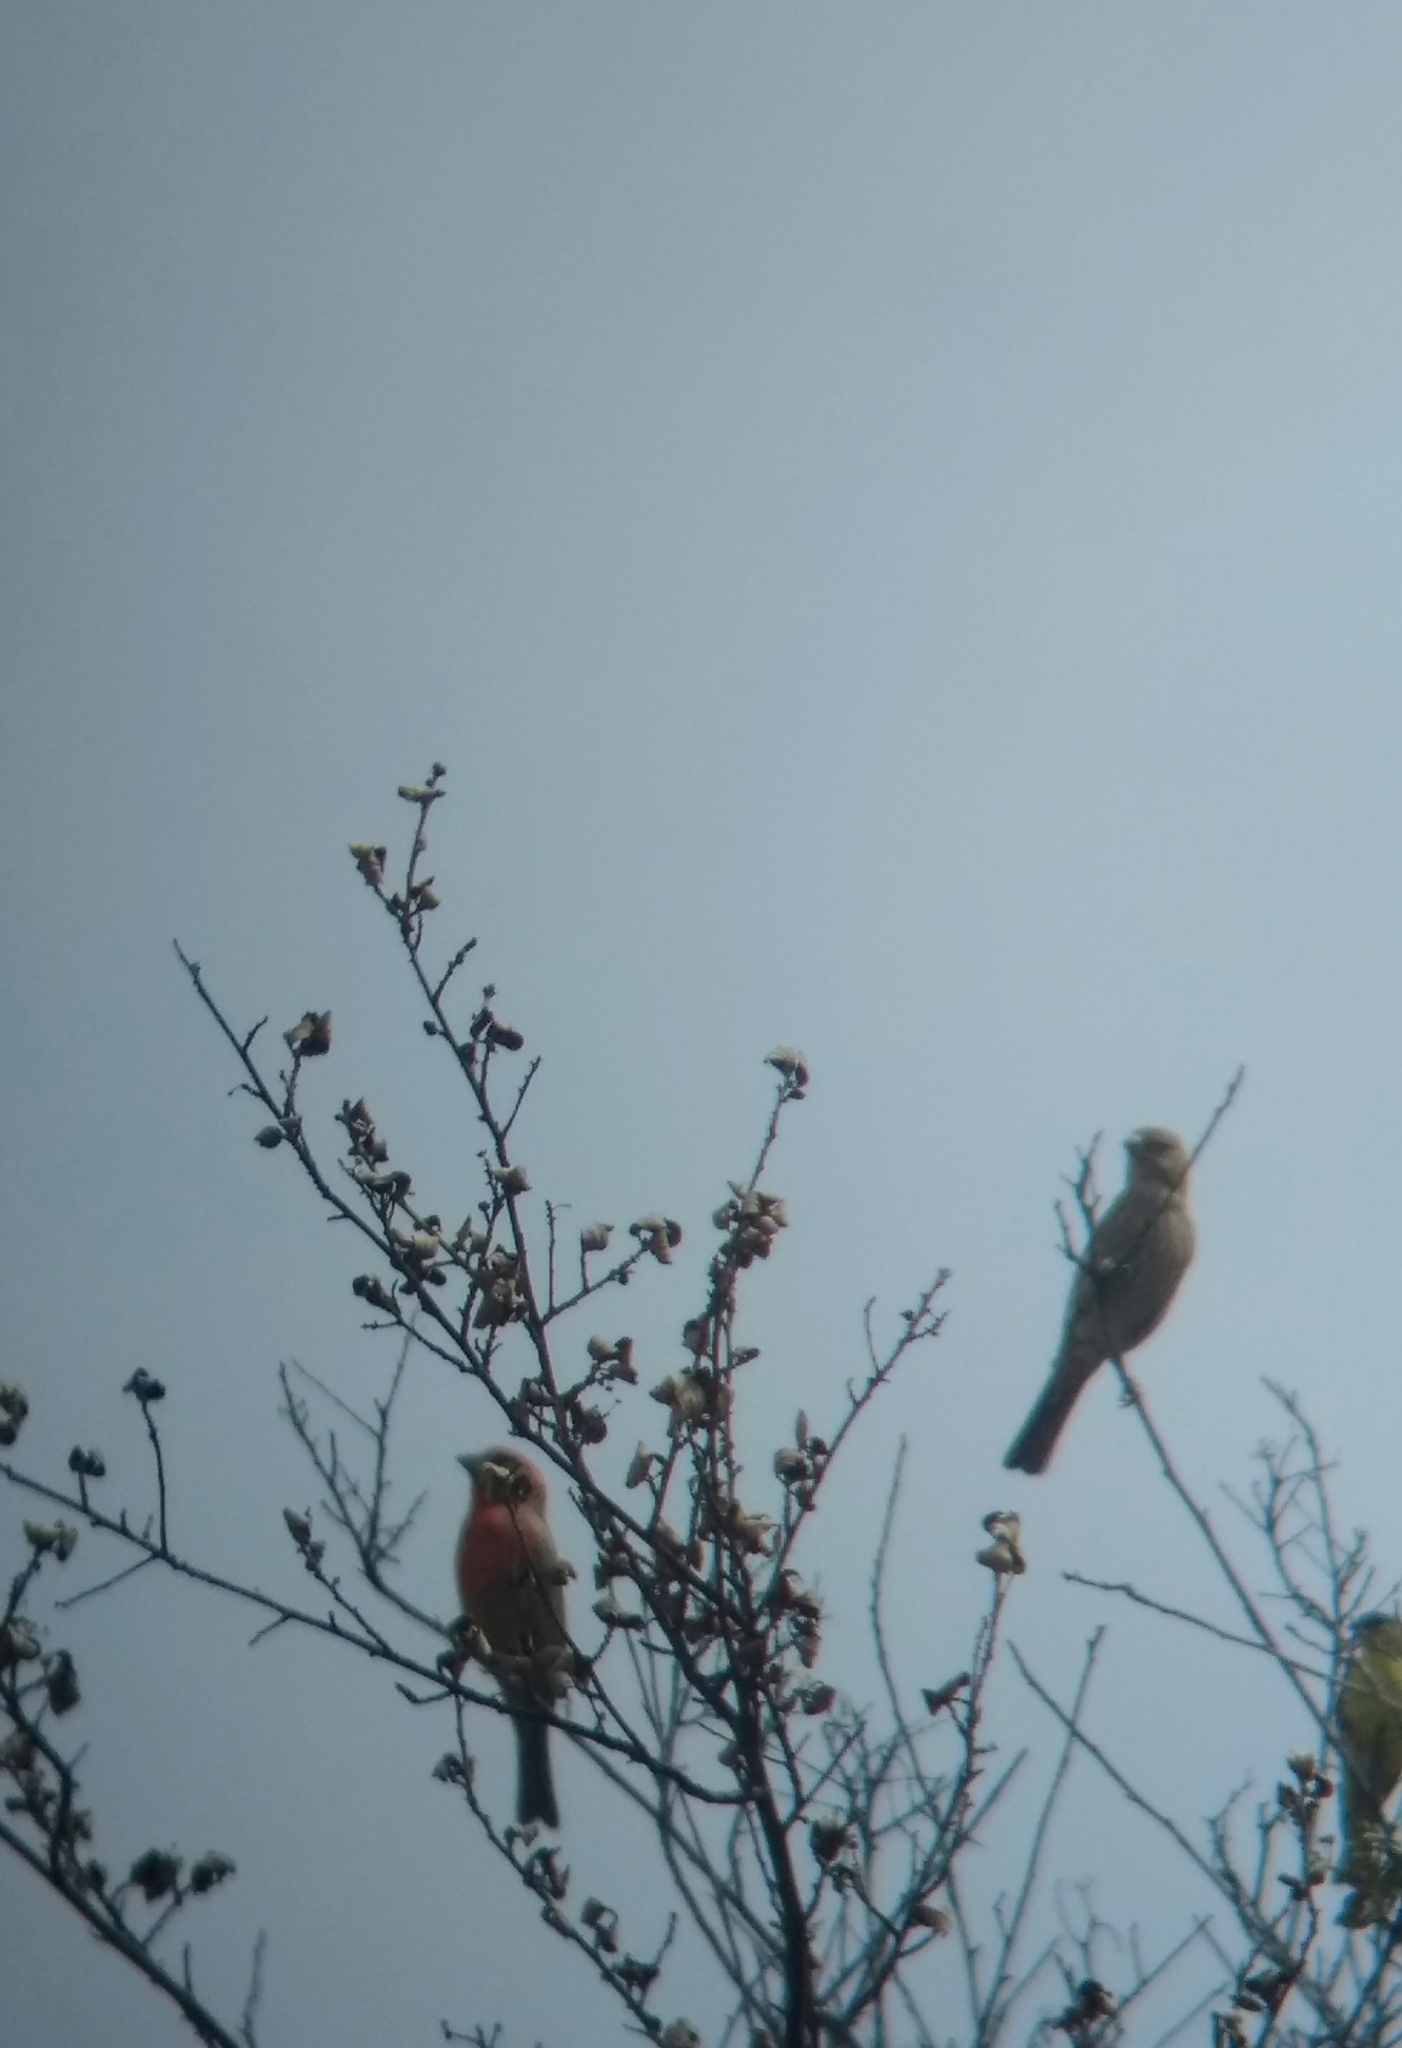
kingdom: Animalia
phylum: Chordata
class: Aves
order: Passeriformes
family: Fringillidae
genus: Haemorhous
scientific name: Haemorhous mexicanus
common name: House finch
